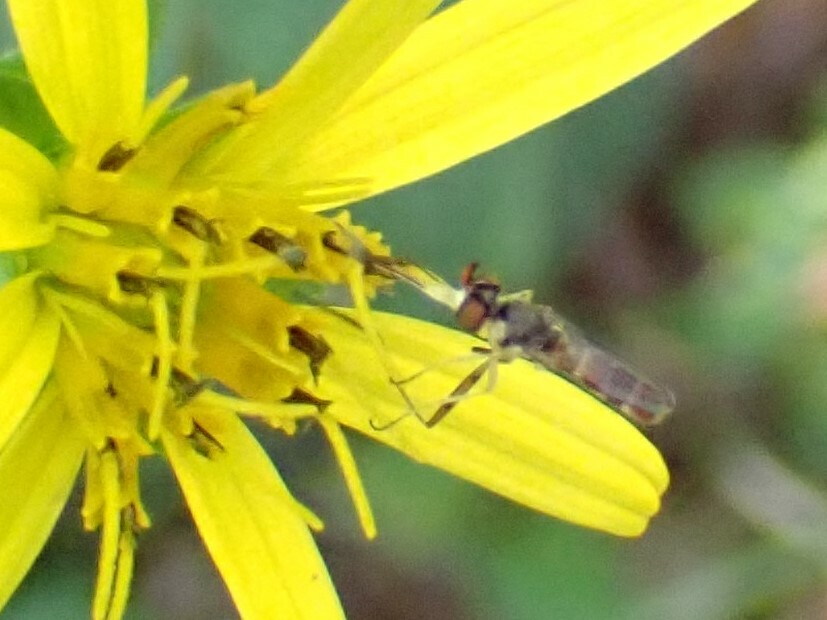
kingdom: Animalia
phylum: Arthropoda
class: Insecta
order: Diptera
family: Conopidae
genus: Stylogaster
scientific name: Stylogaster neglecta
